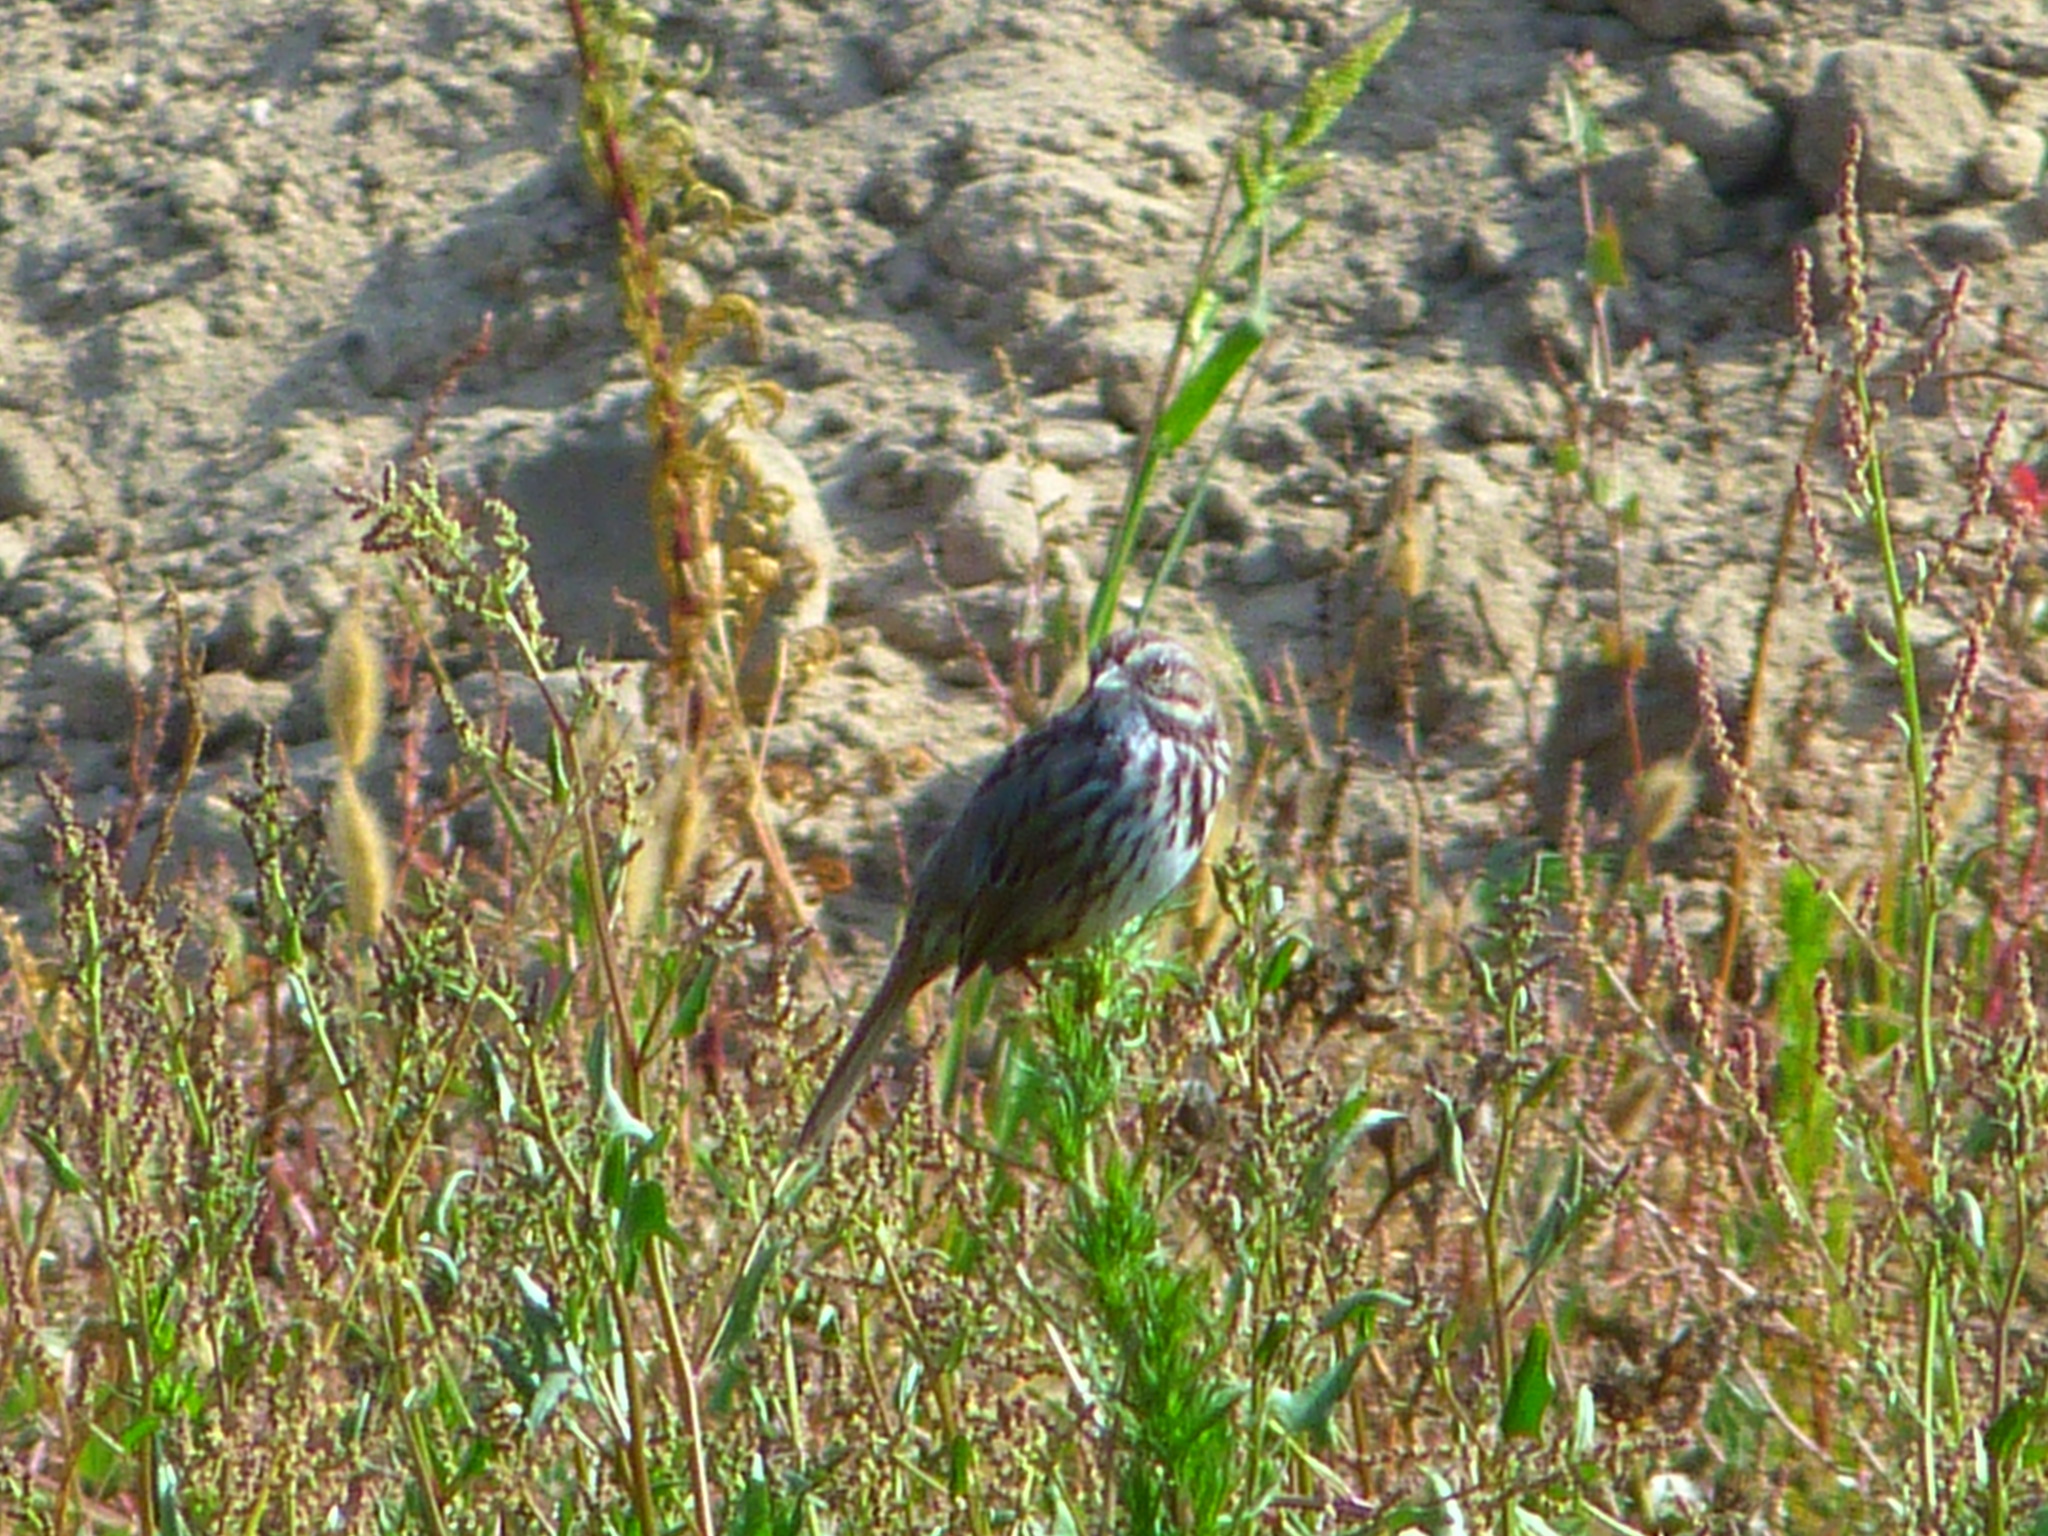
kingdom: Animalia
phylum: Chordata
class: Aves
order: Passeriformes
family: Passerellidae
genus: Melospiza
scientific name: Melospiza melodia
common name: Song sparrow
